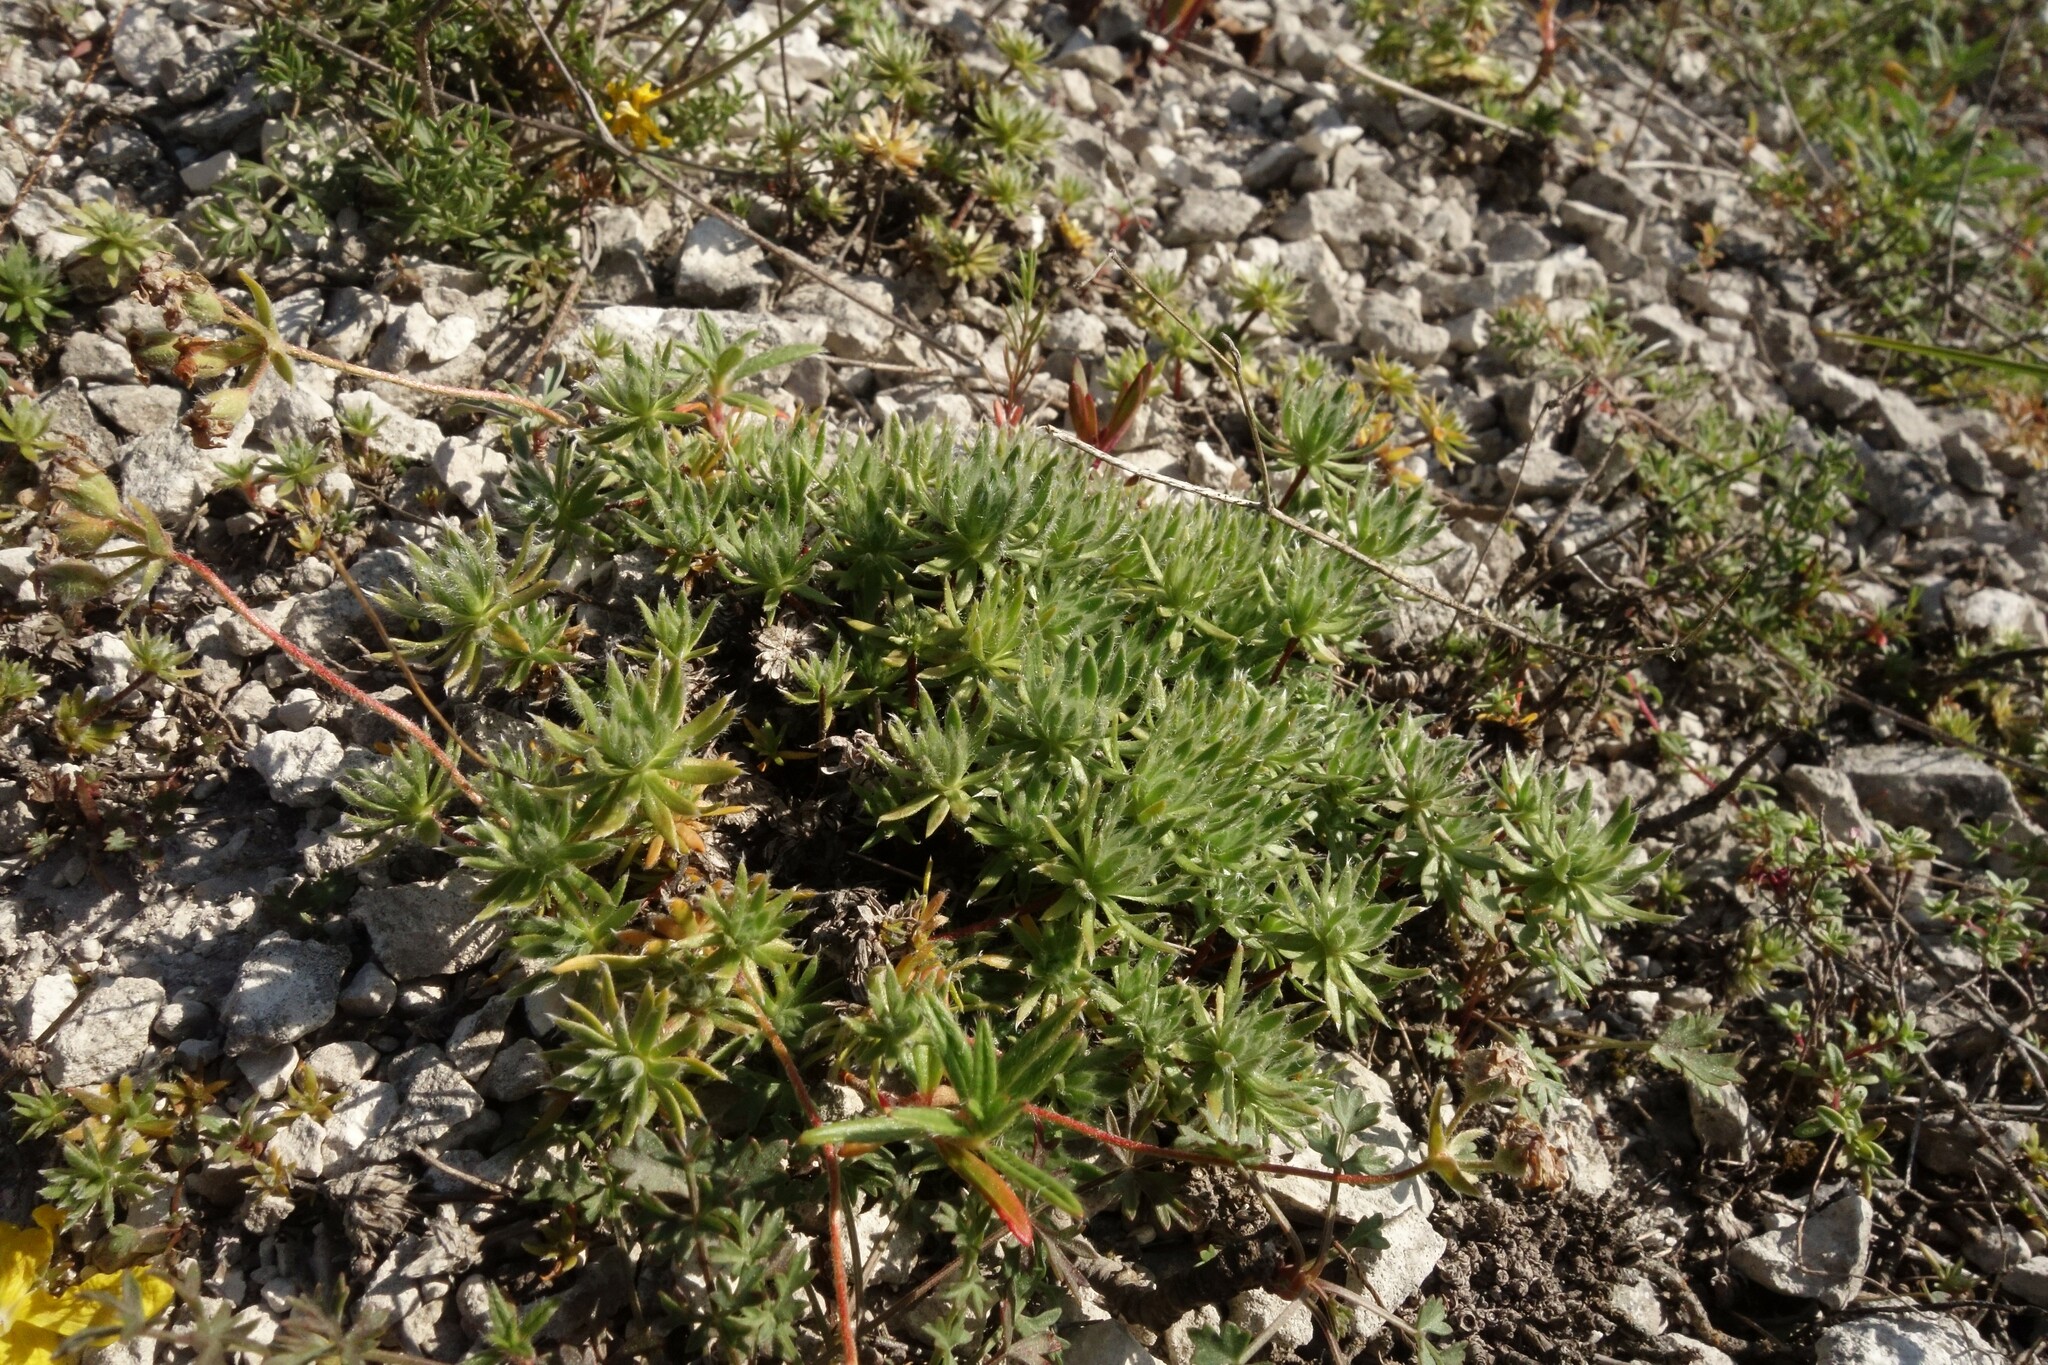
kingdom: Plantae
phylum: Tracheophyta
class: Magnoliopsida
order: Ericales
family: Primulaceae
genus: Androsace
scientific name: Androsace villosa
